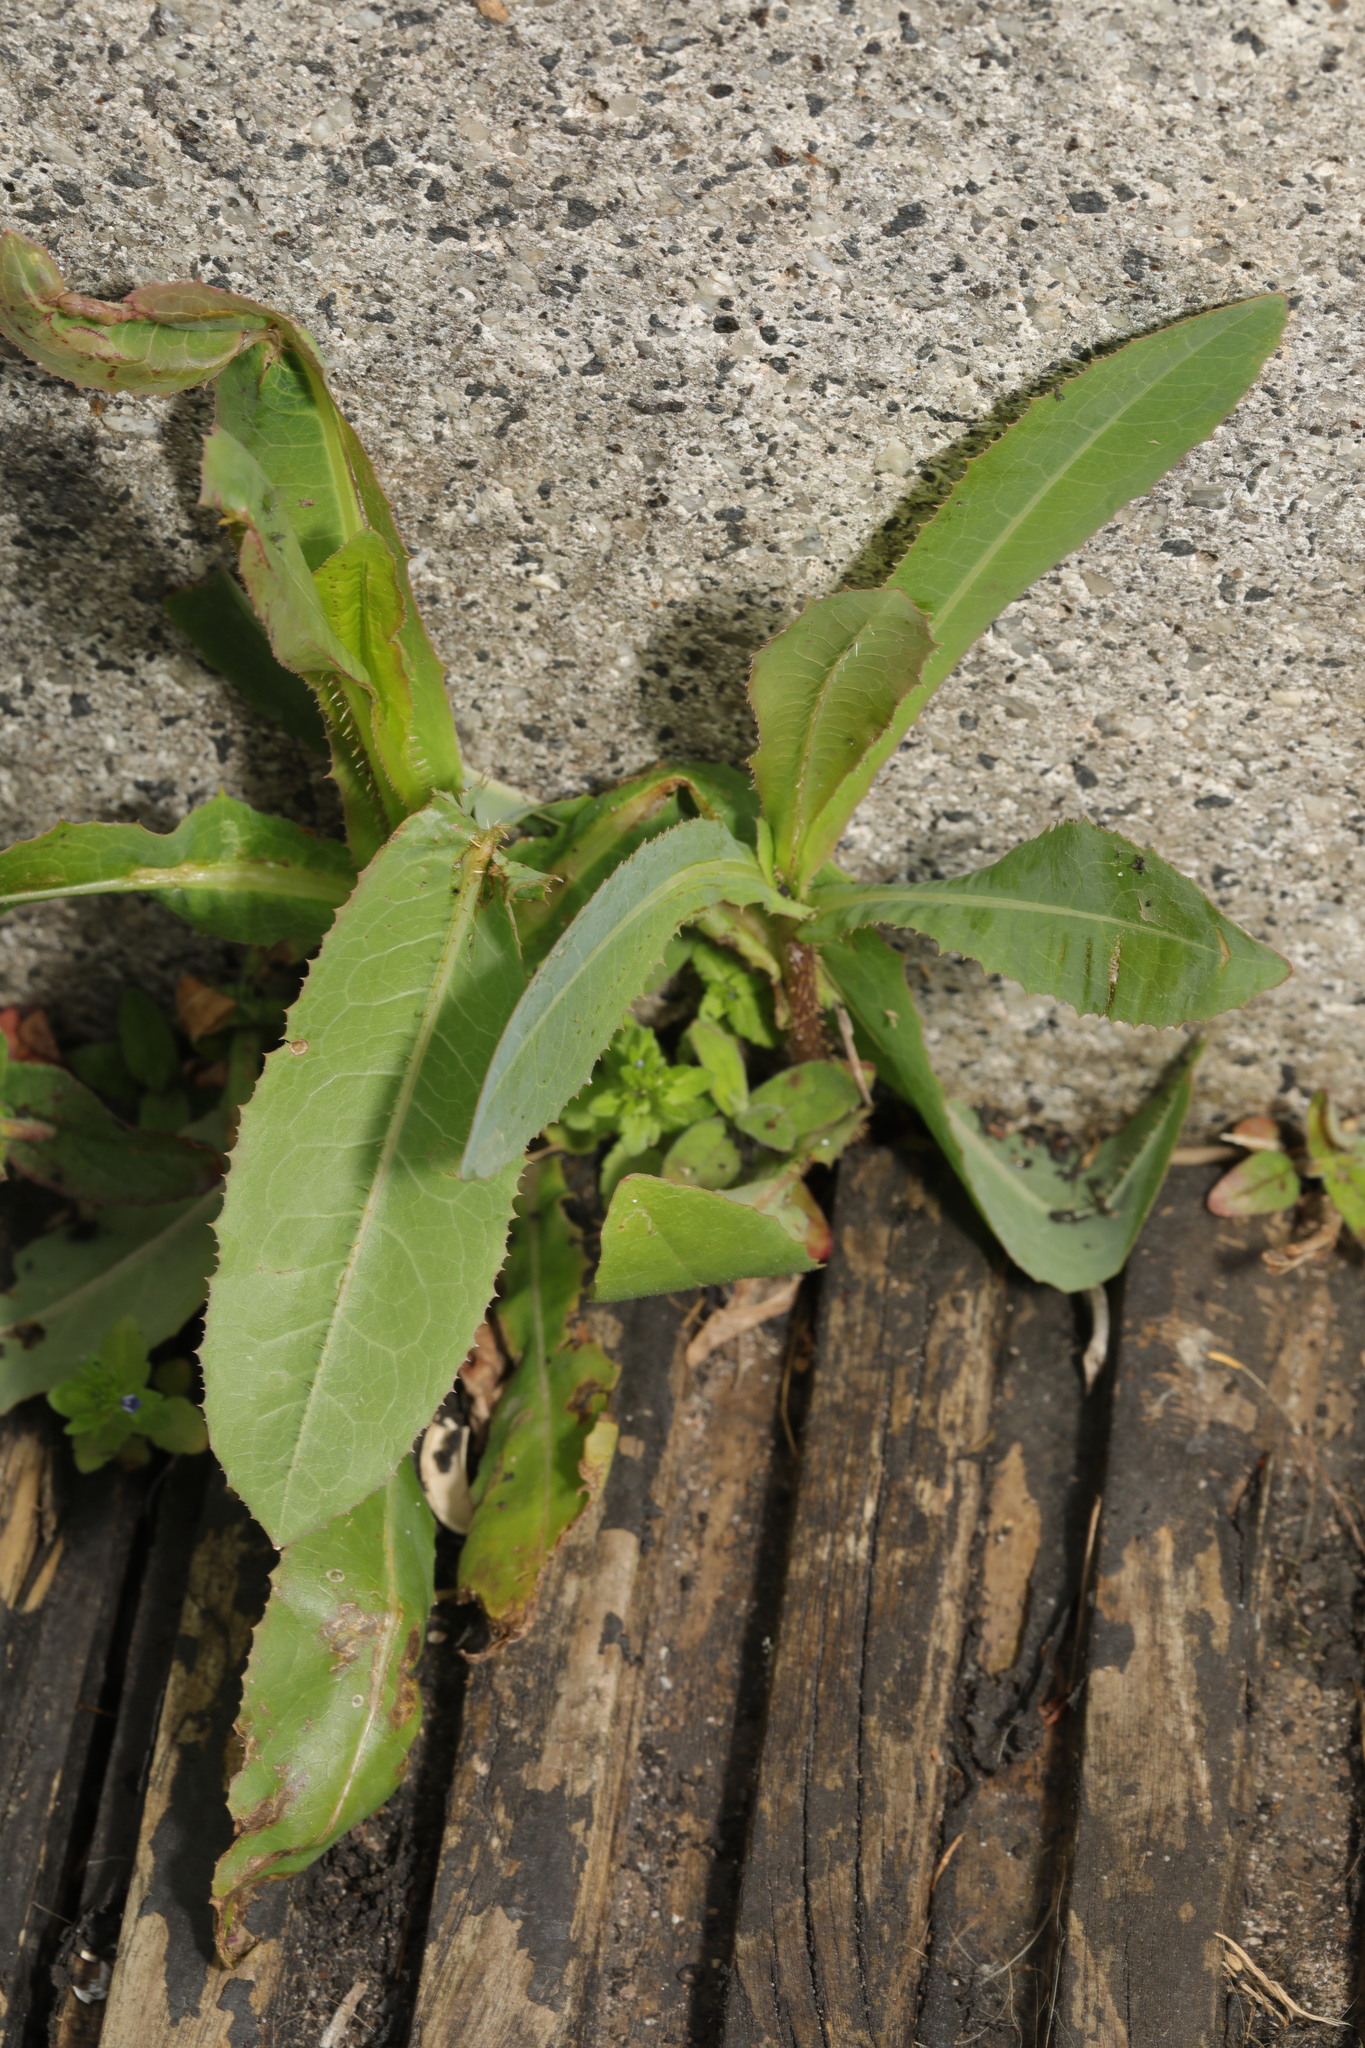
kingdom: Plantae
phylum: Tracheophyta
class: Magnoliopsida
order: Asterales
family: Asteraceae
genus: Lactuca
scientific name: Lactuca serriola
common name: Prickly lettuce
